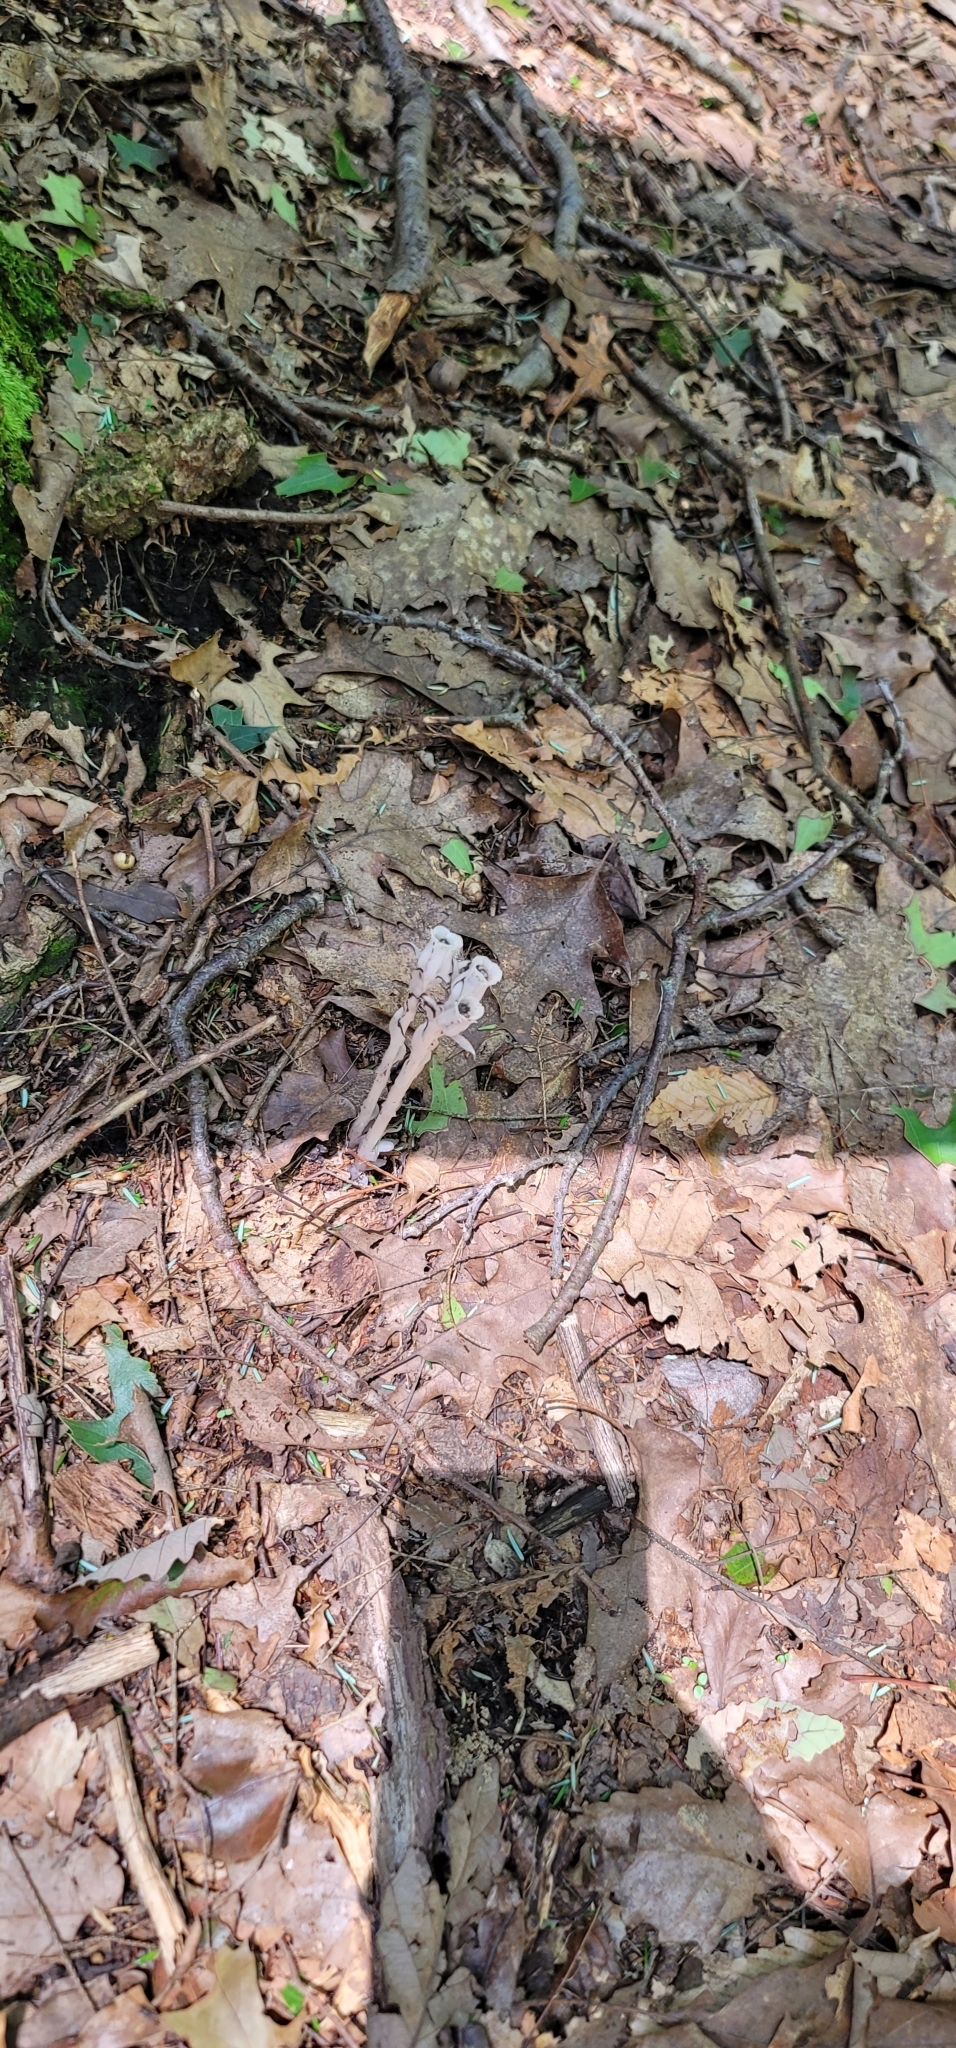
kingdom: Plantae
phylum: Tracheophyta
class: Magnoliopsida
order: Ericales
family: Ericaceae
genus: Monotropa
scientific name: Monotropa uniflora
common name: Convulsion root
